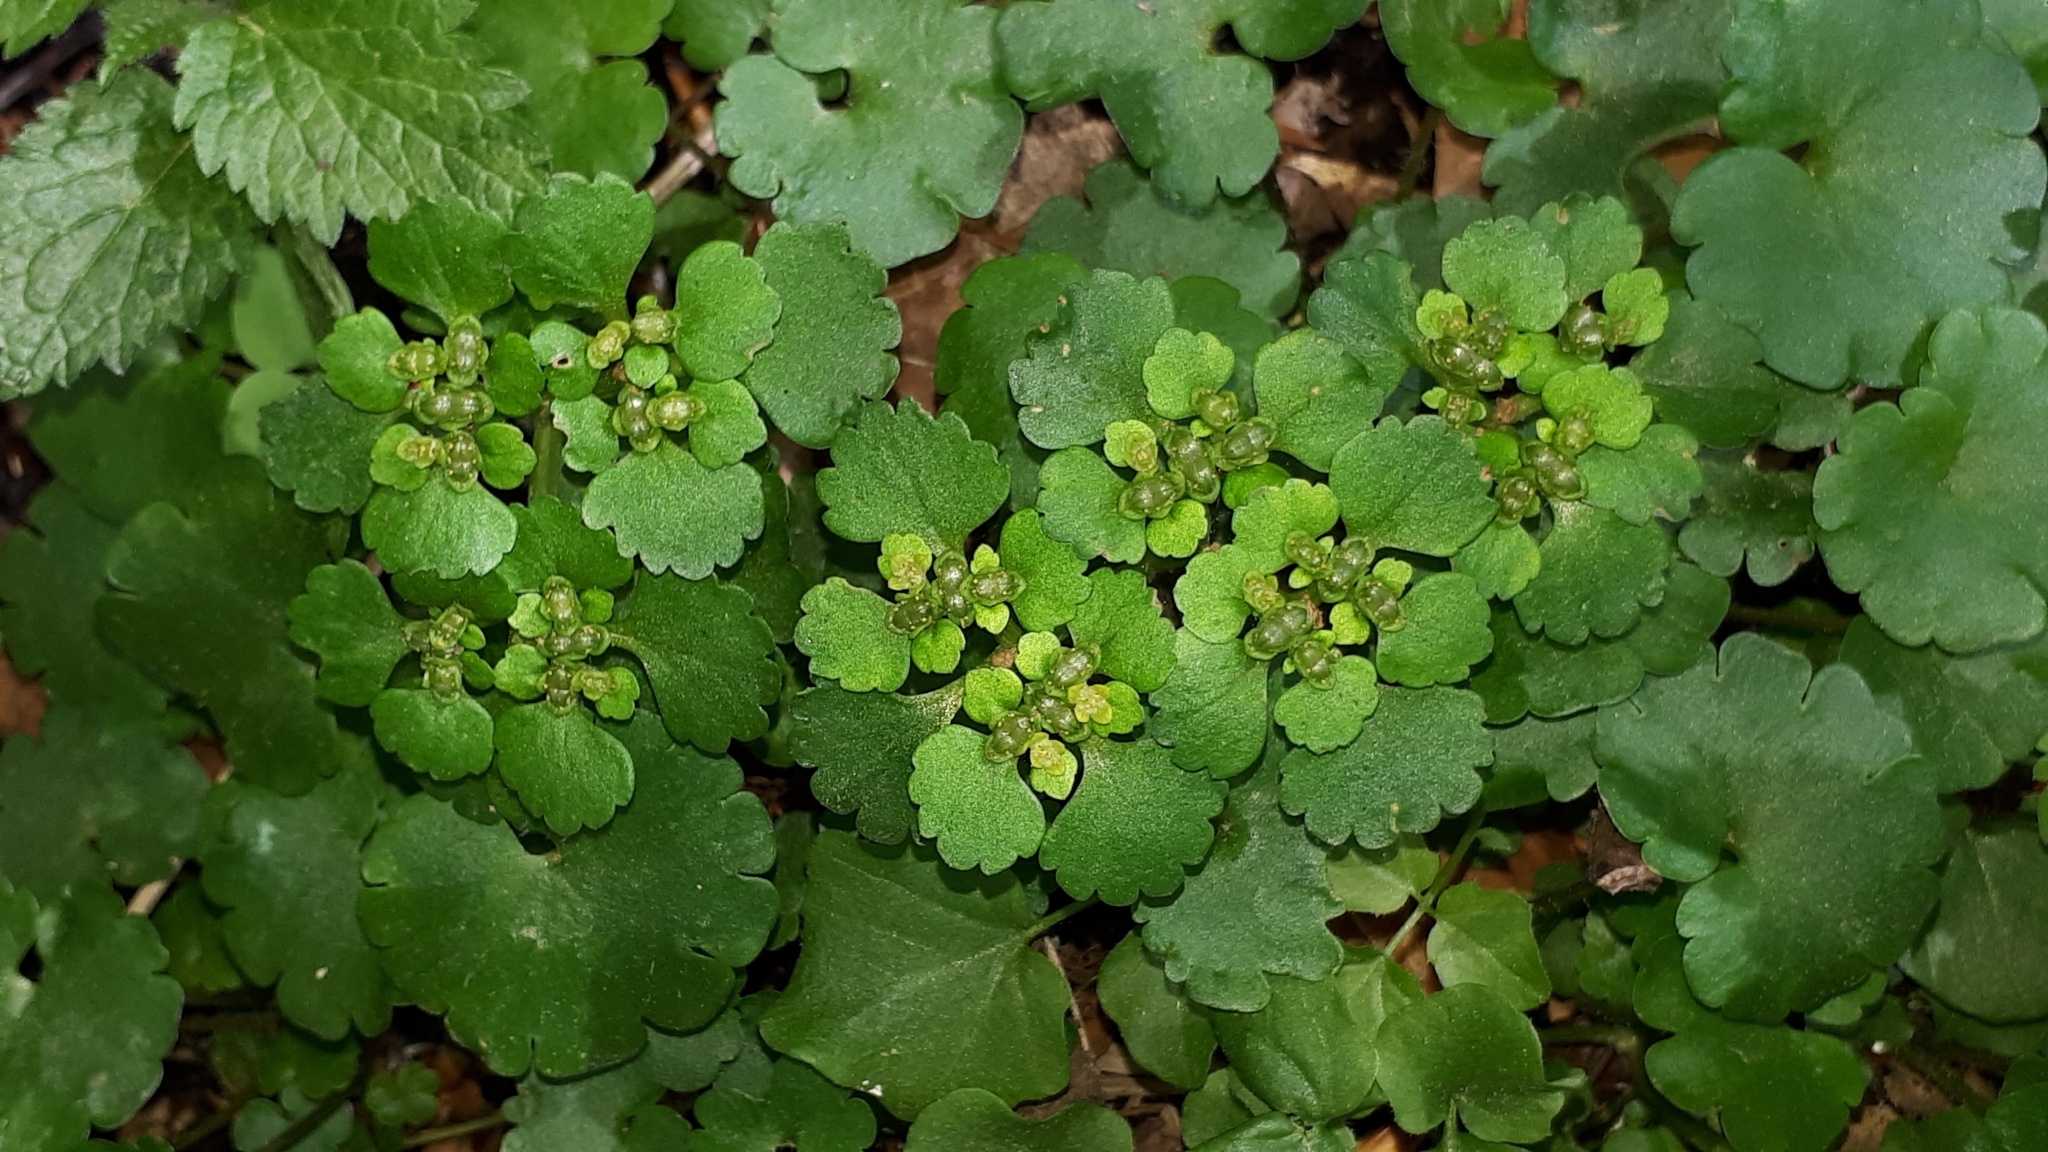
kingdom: Plantae
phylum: Tracheophyta
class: Magnoliopsida
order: Saxifragales
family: Saxifragaceae
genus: Chrysosplenium
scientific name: Chrysosplenium alternifolium
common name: Alternate-leaved golden-saxifrage
